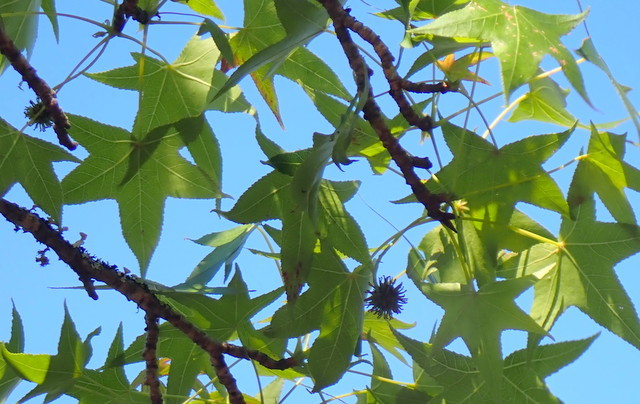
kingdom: Plantae
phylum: Tracheophyta
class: Magnoliopsida
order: Saxifragales
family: Altingiaceae
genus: Liquidambar
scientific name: Liquidambar styraciflua
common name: Sweet gum
